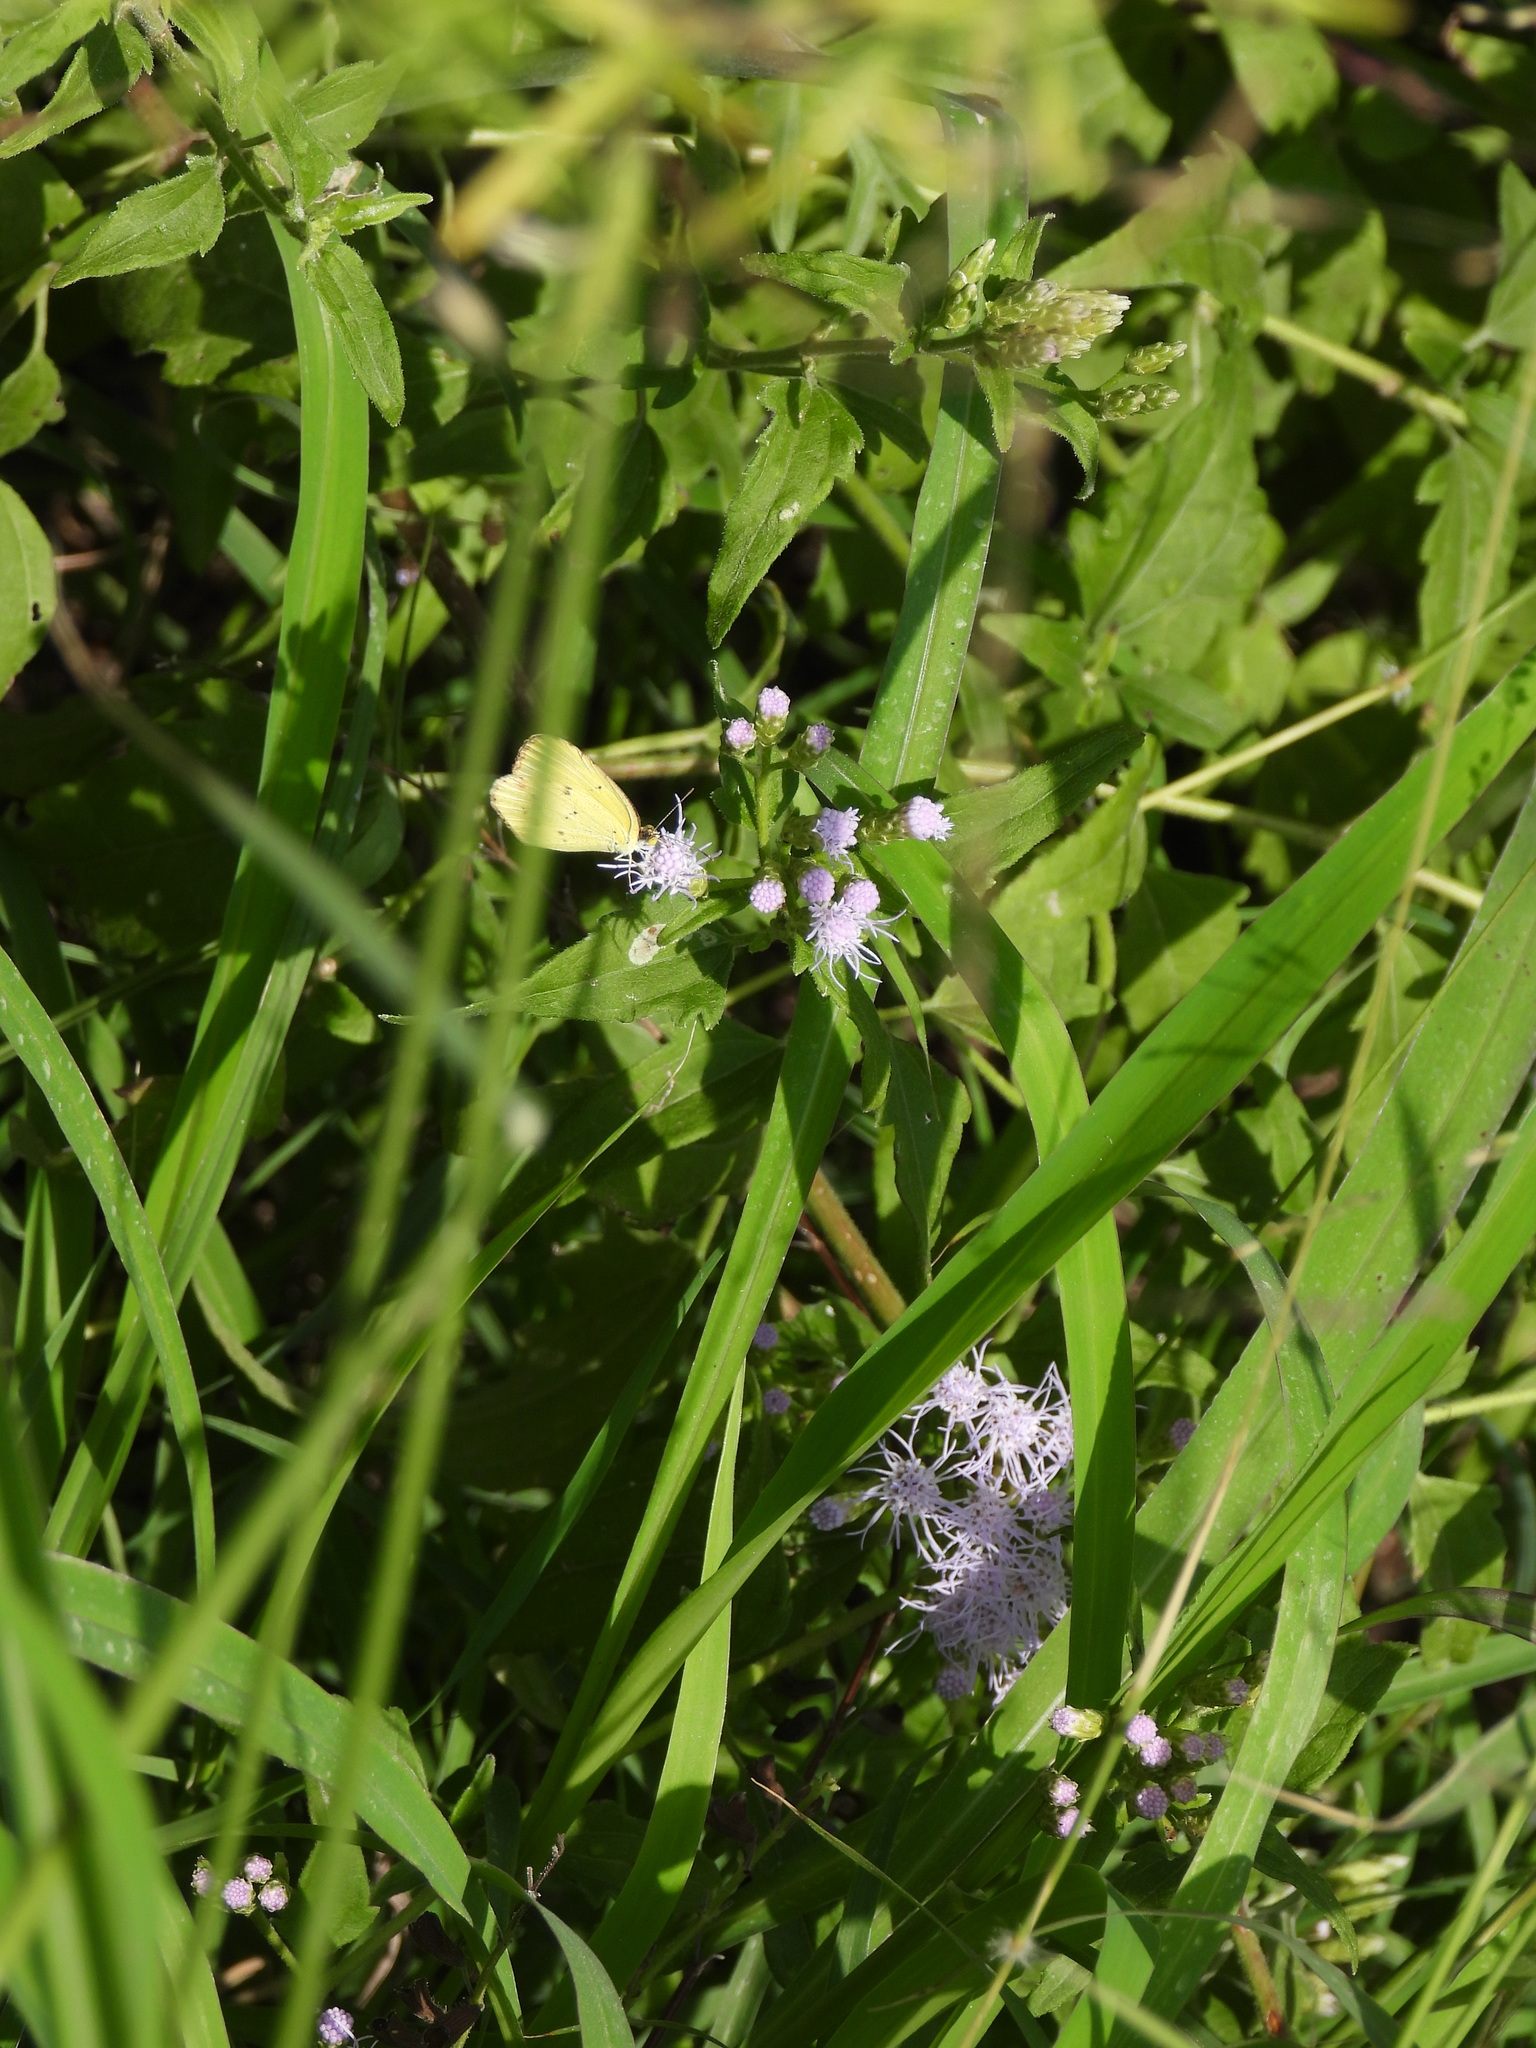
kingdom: Animalia
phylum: Arthropoda
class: Insecta
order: Lepidoptera
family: Pieridae
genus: Pyrisitia
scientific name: Pyrisitia lisa
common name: Little yellow
